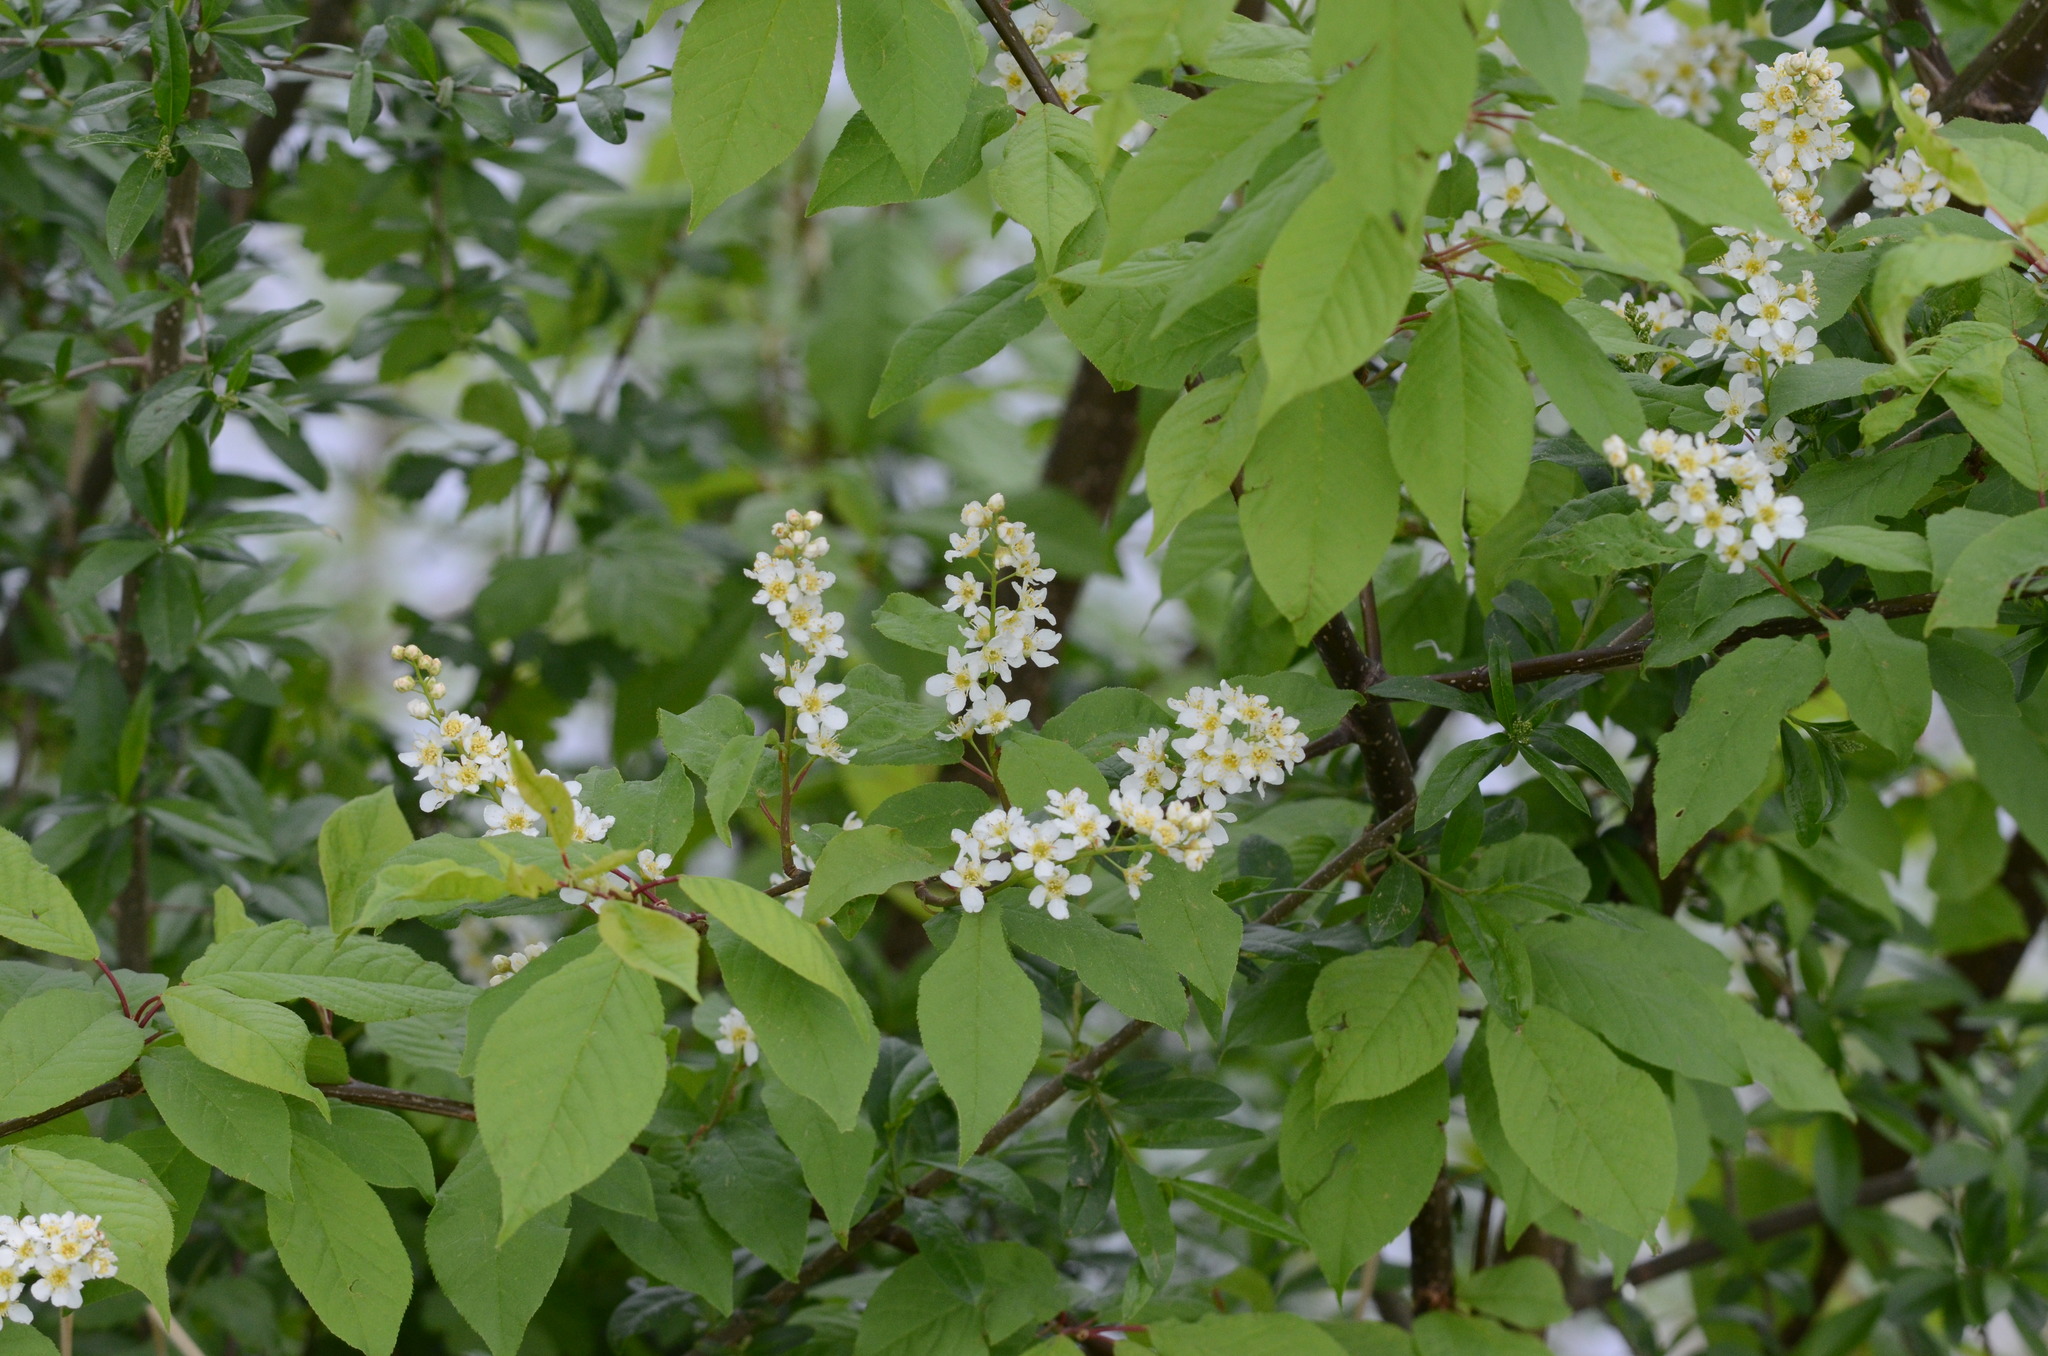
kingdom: Plantae
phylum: Tracheophyta
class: Magnoliopsida
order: Rosales
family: Rosaceae
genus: Prunus
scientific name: Prunus padus
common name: Bird cherry
